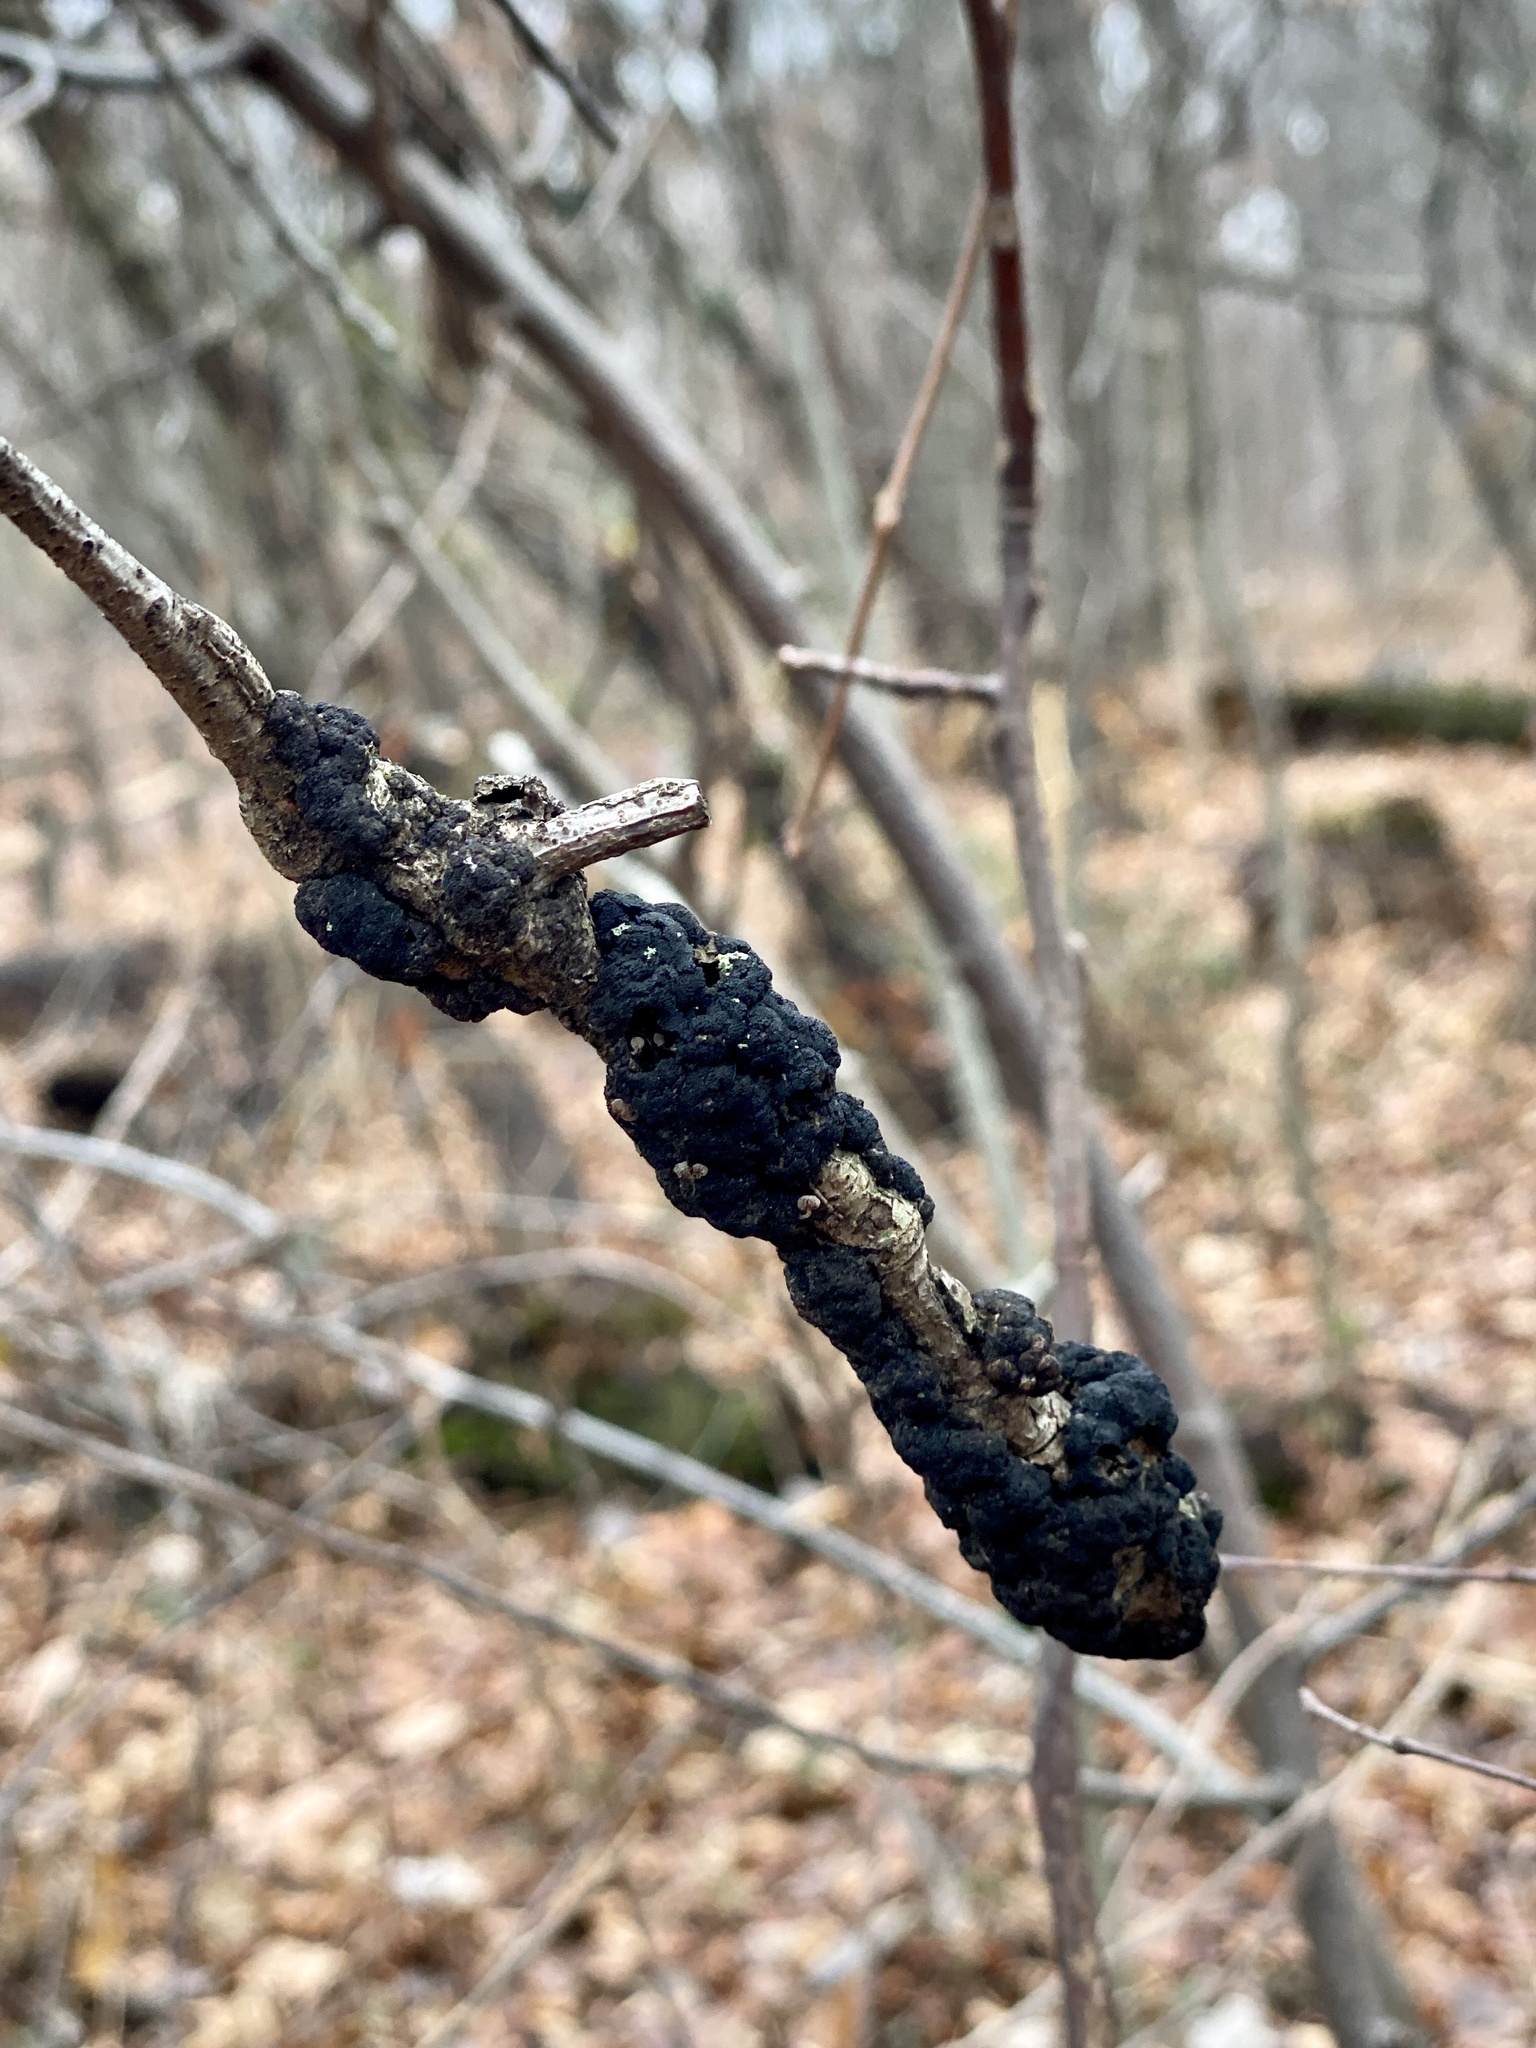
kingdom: Fungi
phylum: Ascomycota
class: Dothideomycetes
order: Venturiales
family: Venturiaceae
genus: Apiosporina
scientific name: Apiosporina morbosa
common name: Black knot
